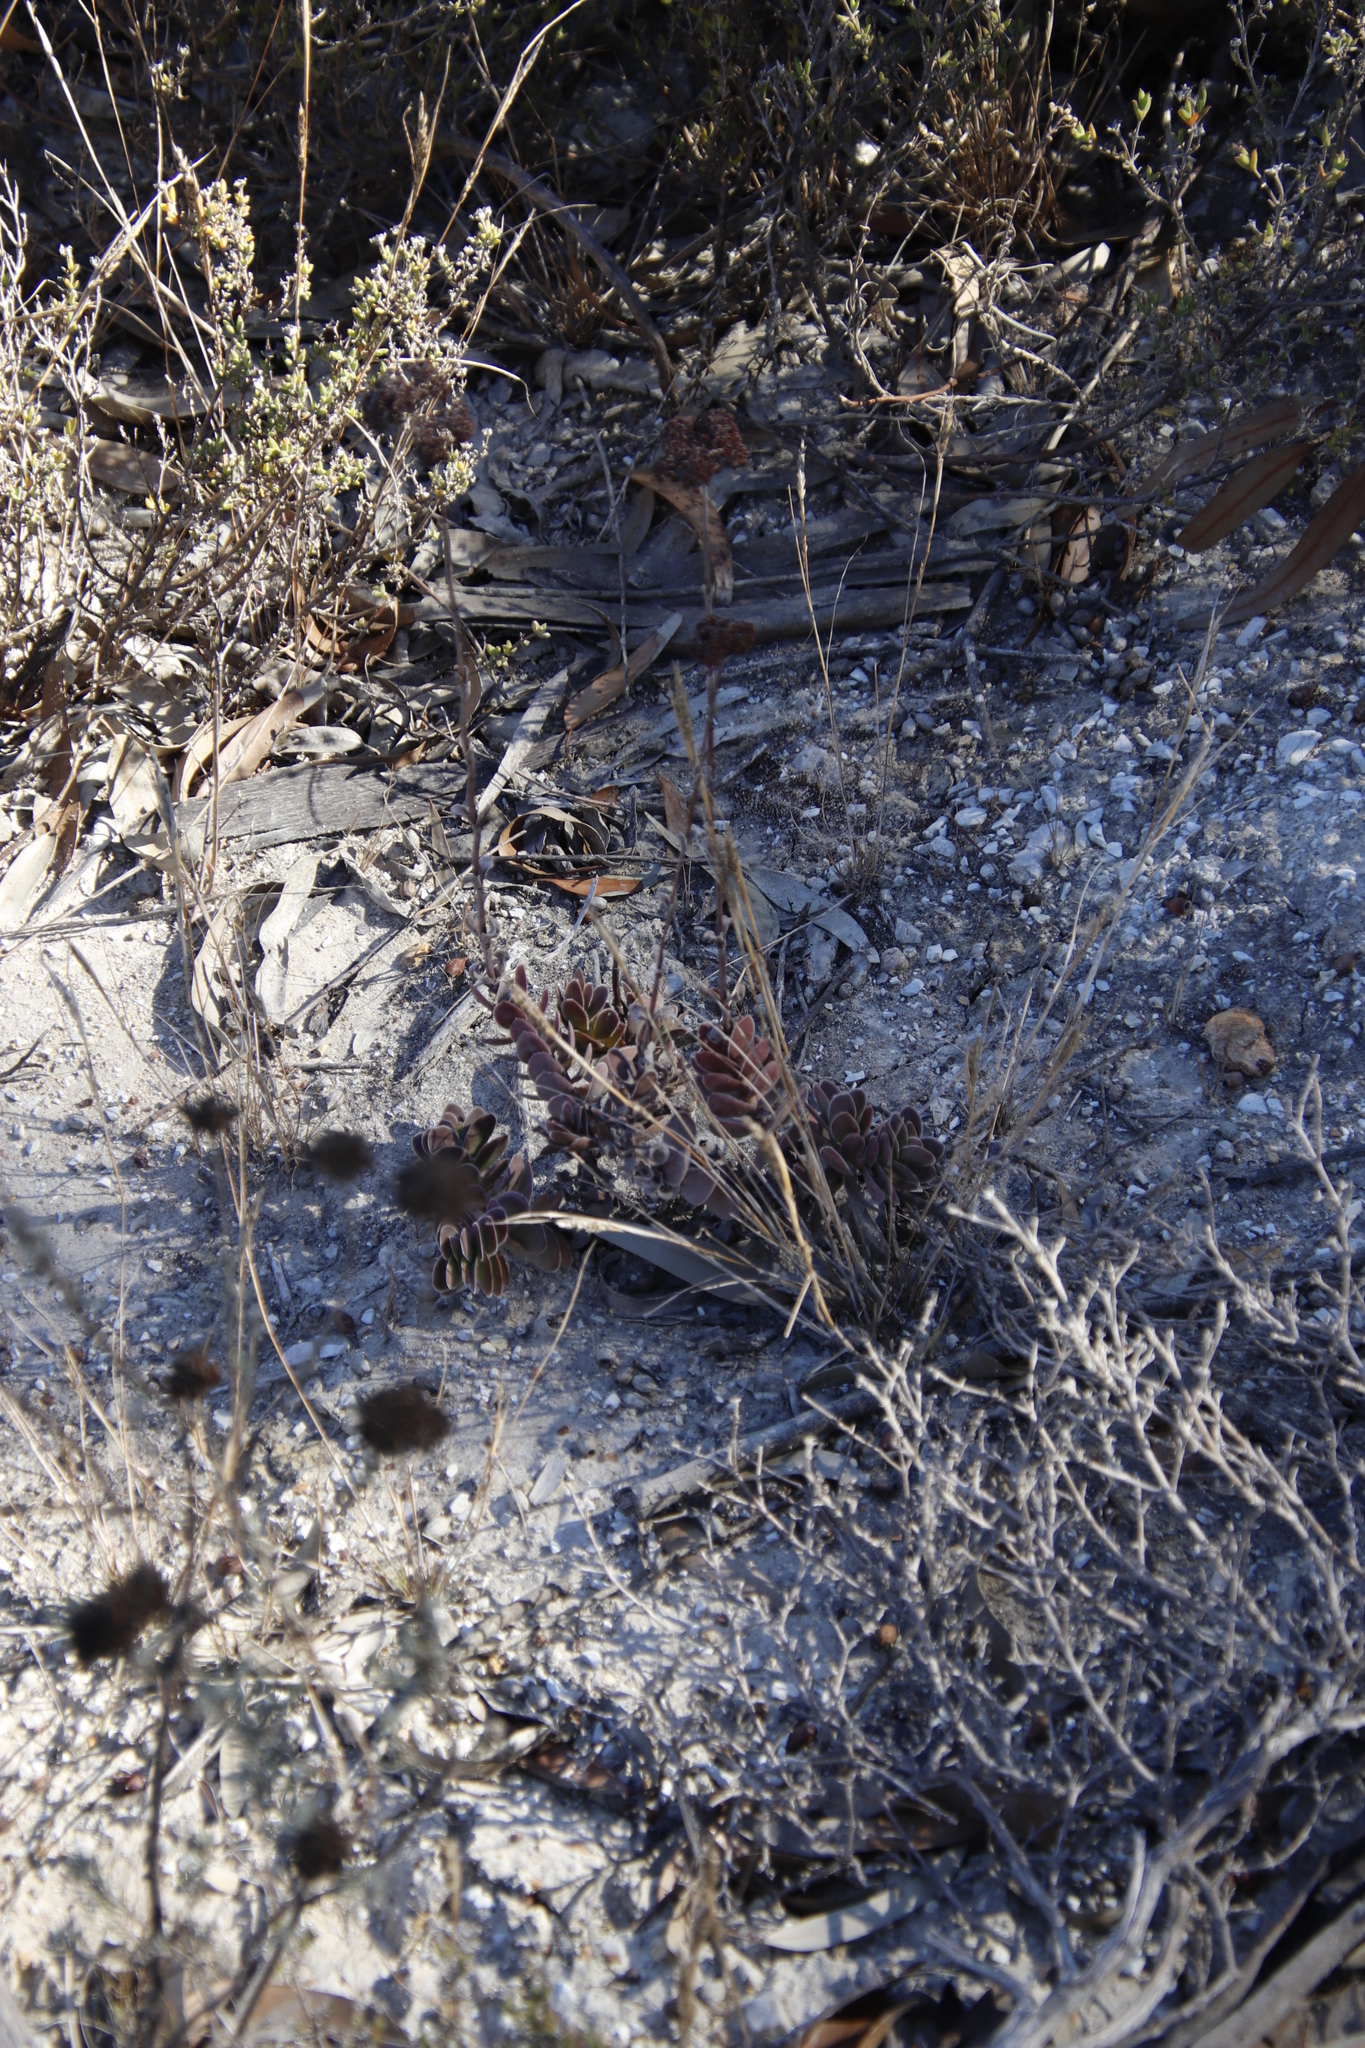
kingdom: Plantae
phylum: Tracheophyta
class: Magnoliopsida
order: Saxifragales
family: Crassulaceae
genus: Crassula
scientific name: Crassula ciliata
